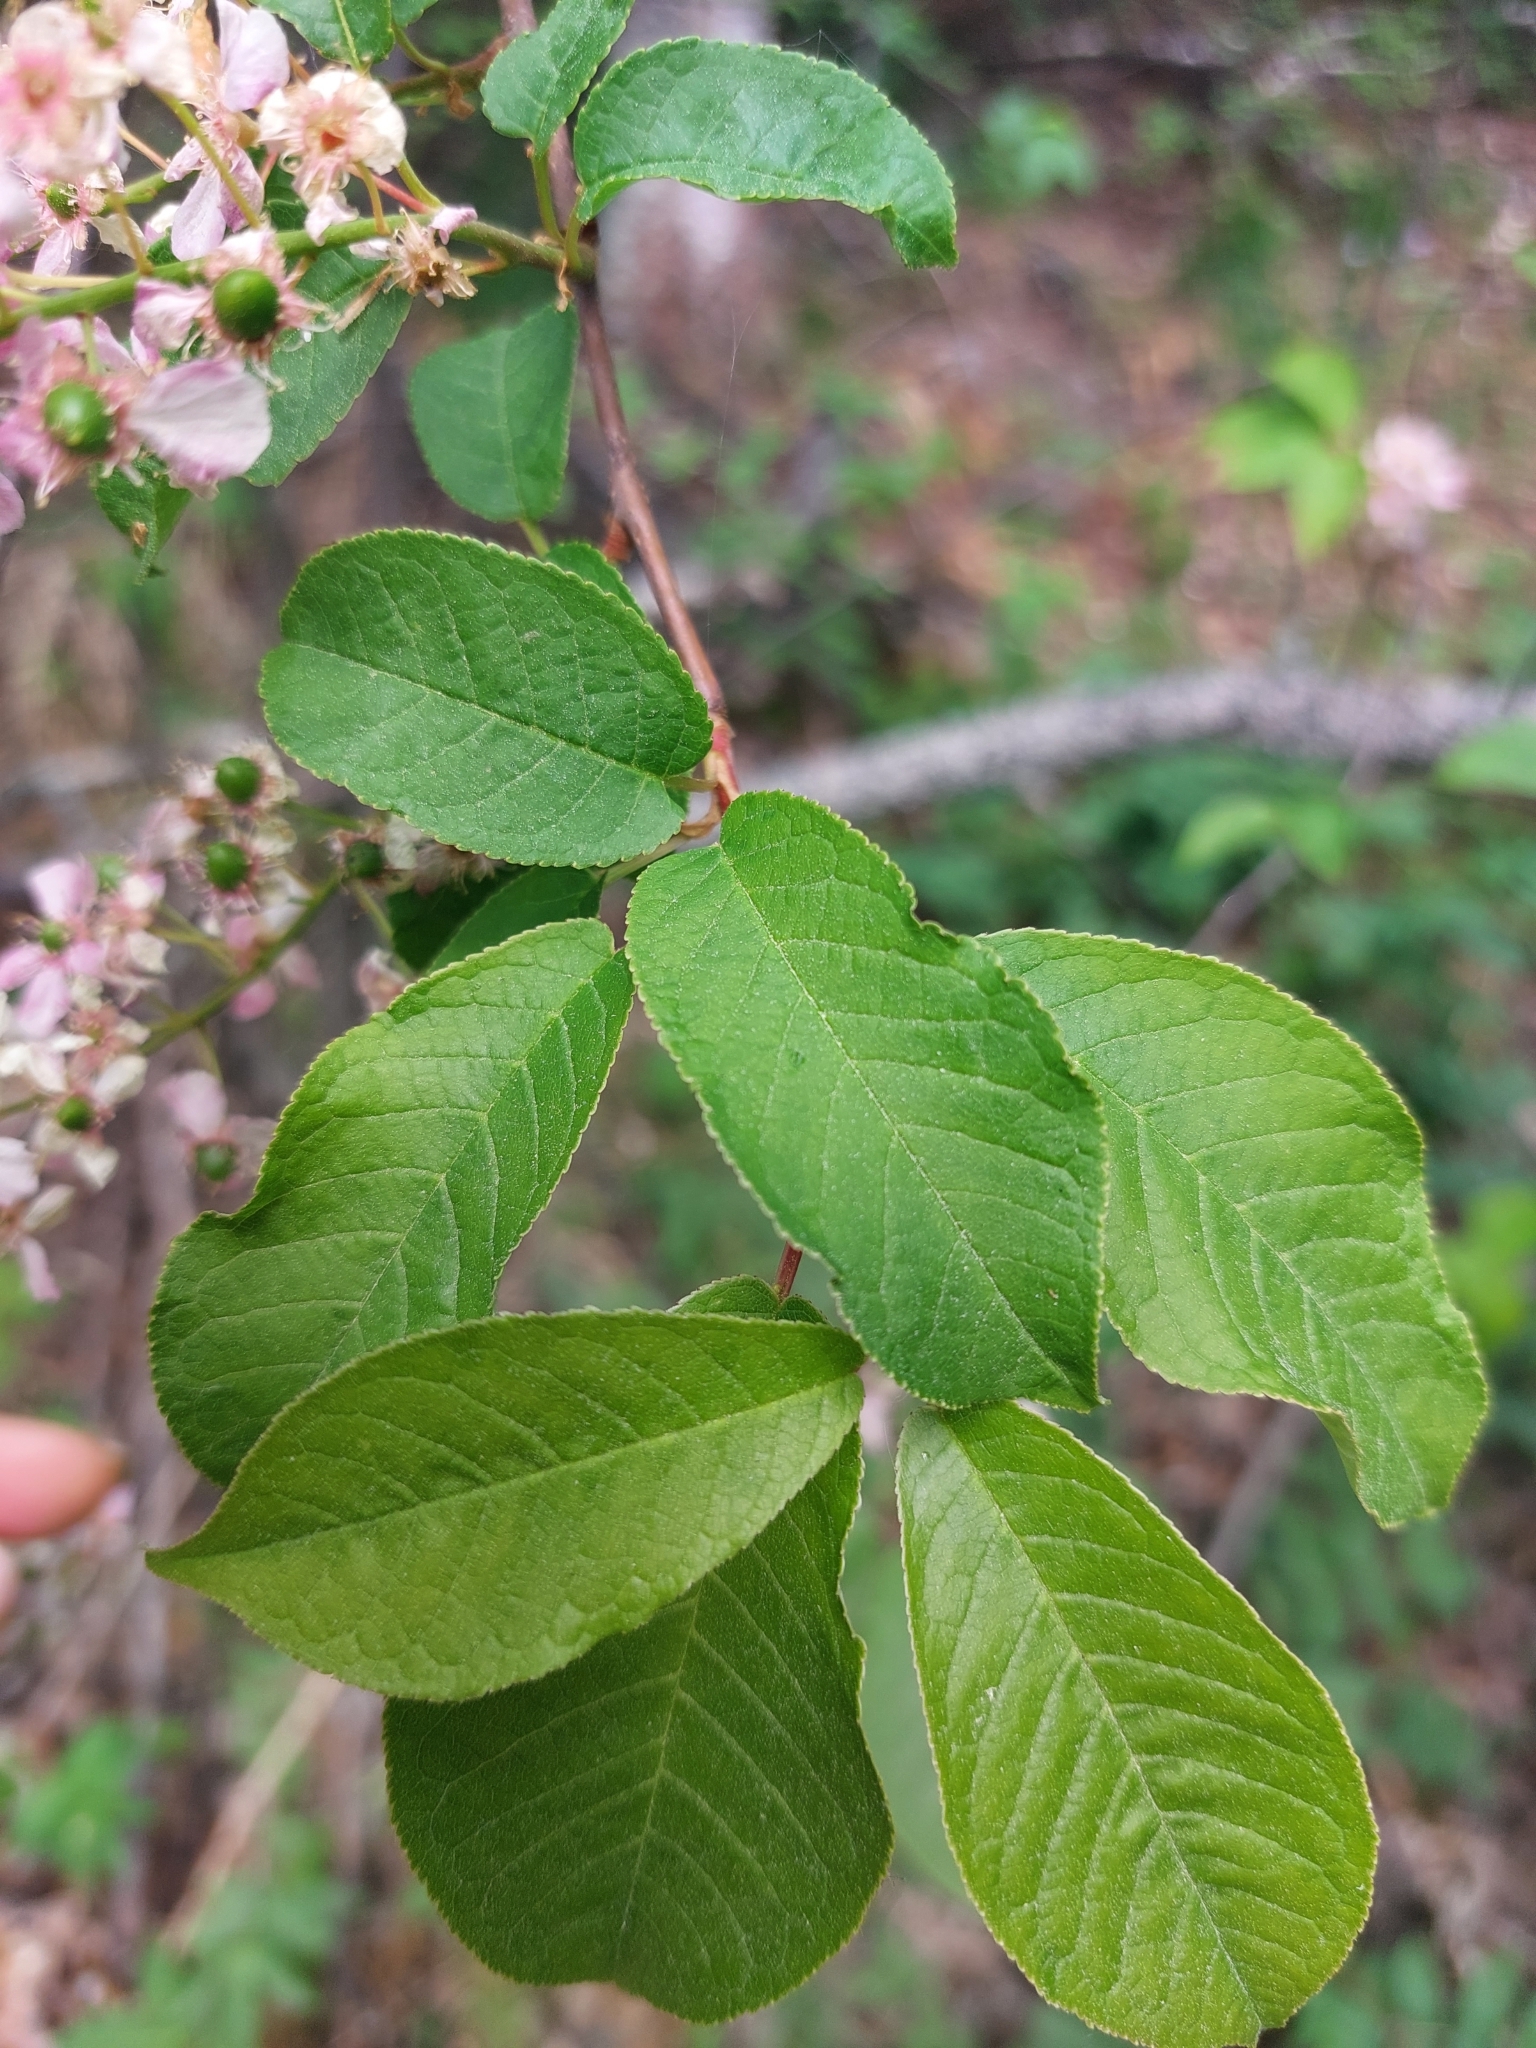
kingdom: Plantae
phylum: Tracheophyta
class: Magnoliopsida
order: Rosales
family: Rosaceae
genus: Prunus
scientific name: Prunus padus
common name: Bird cherry
